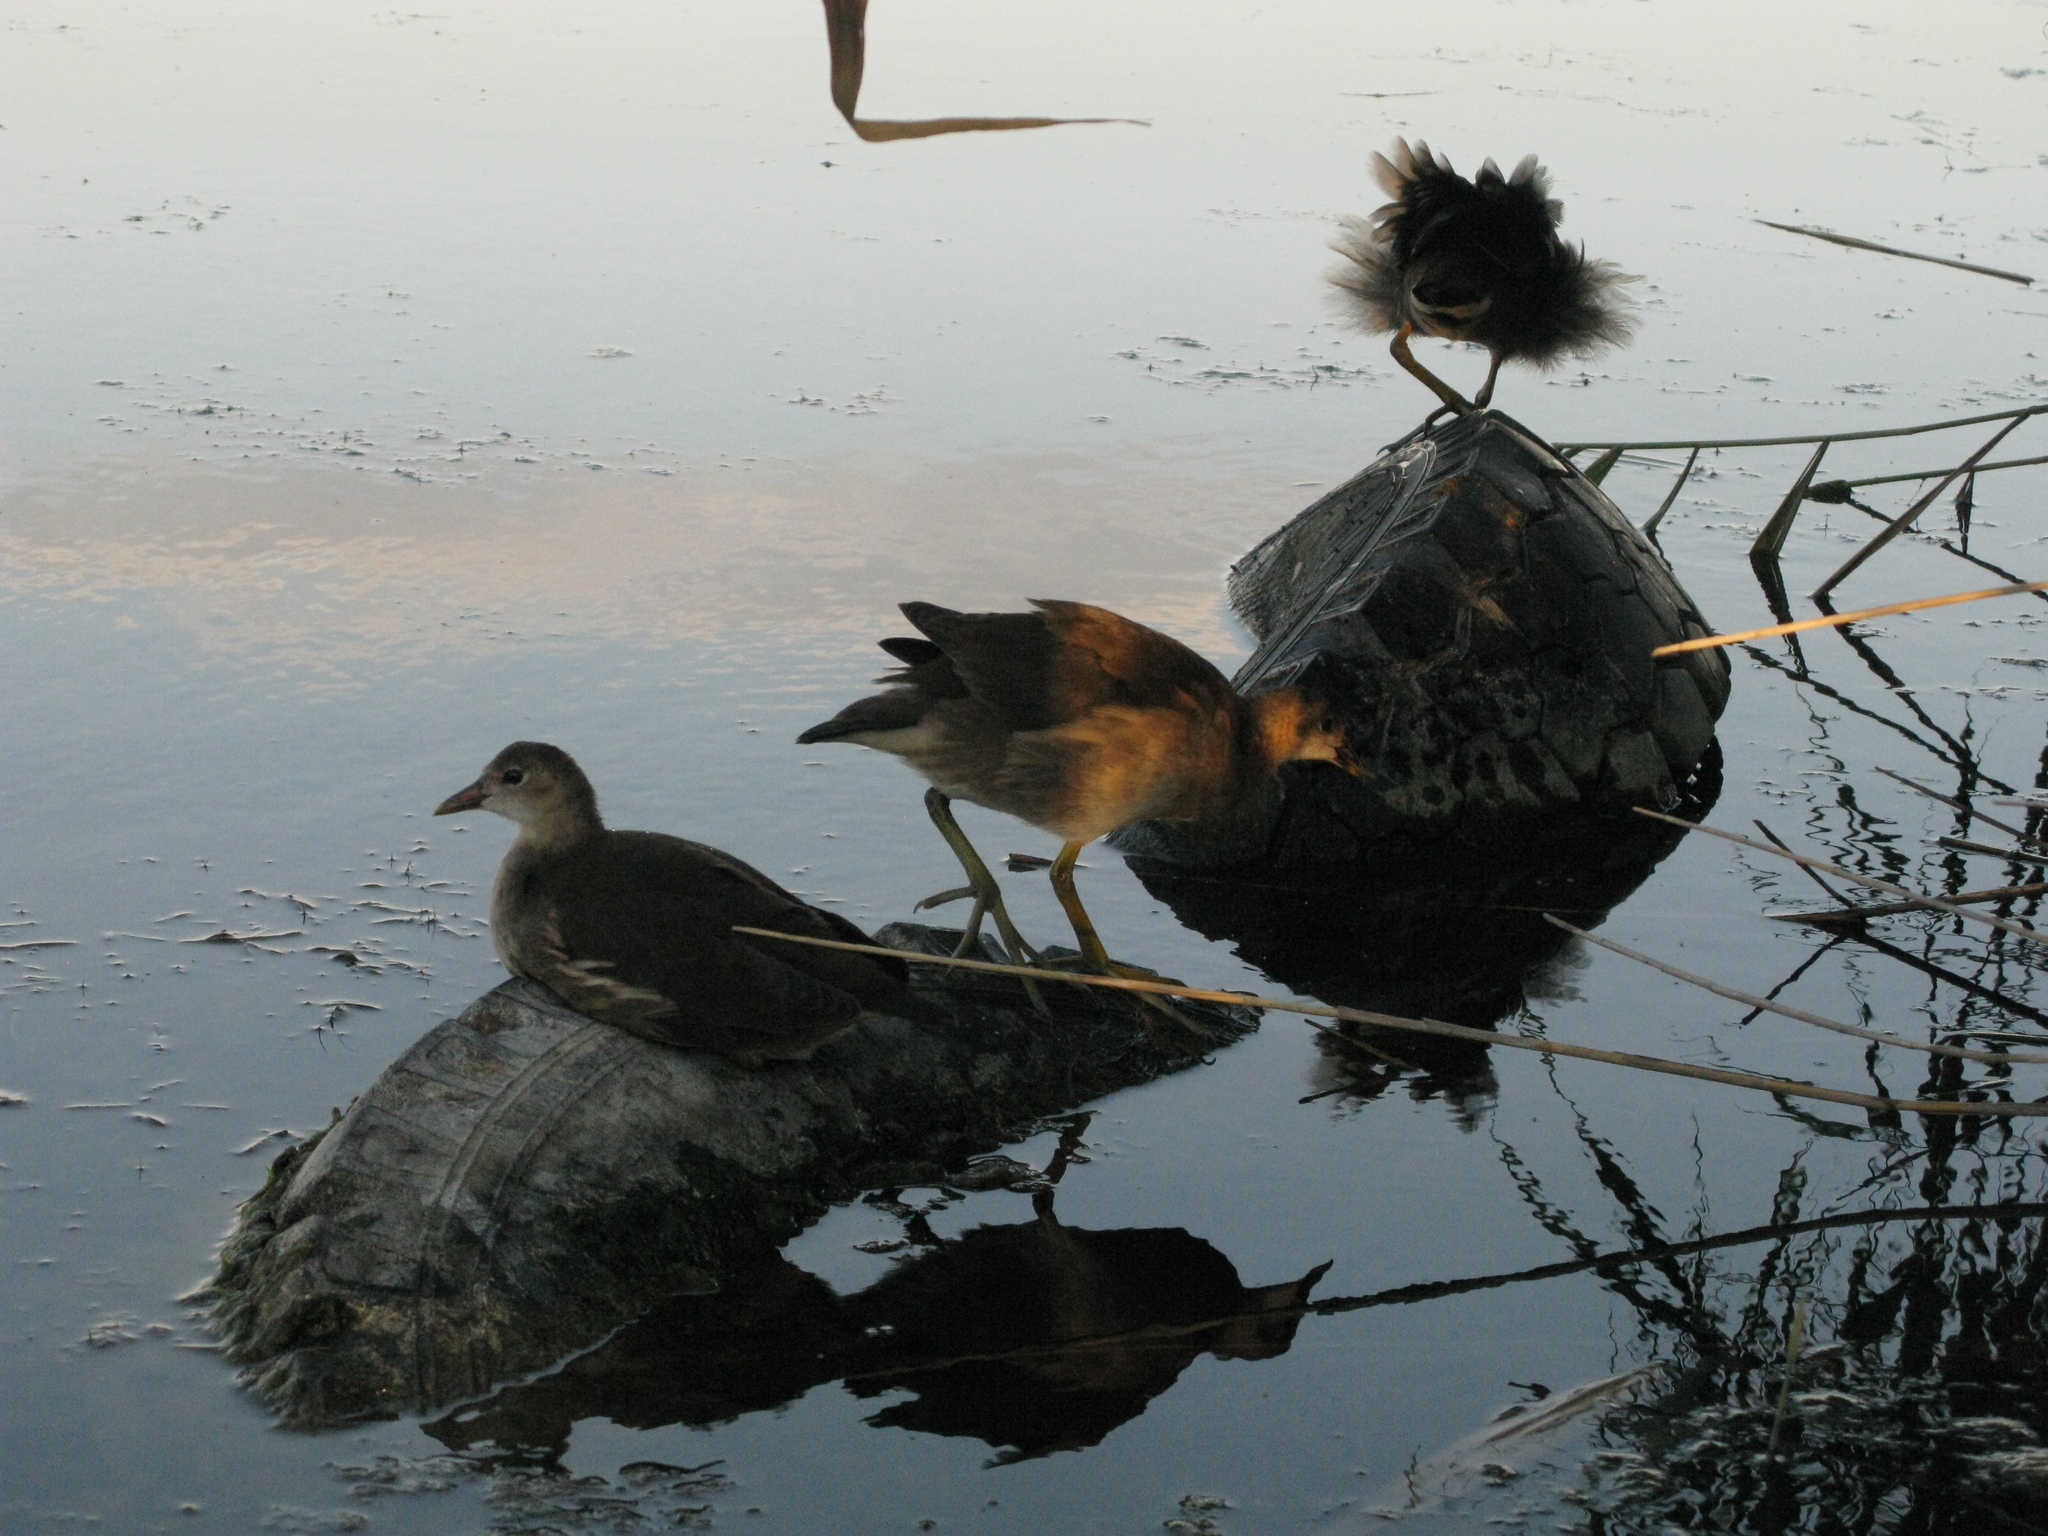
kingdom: Animalia
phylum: Chordata
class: Aves
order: Gruiformes
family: Rallidae
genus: Gallinula
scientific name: Gallinula chloropus
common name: Common moorhen
